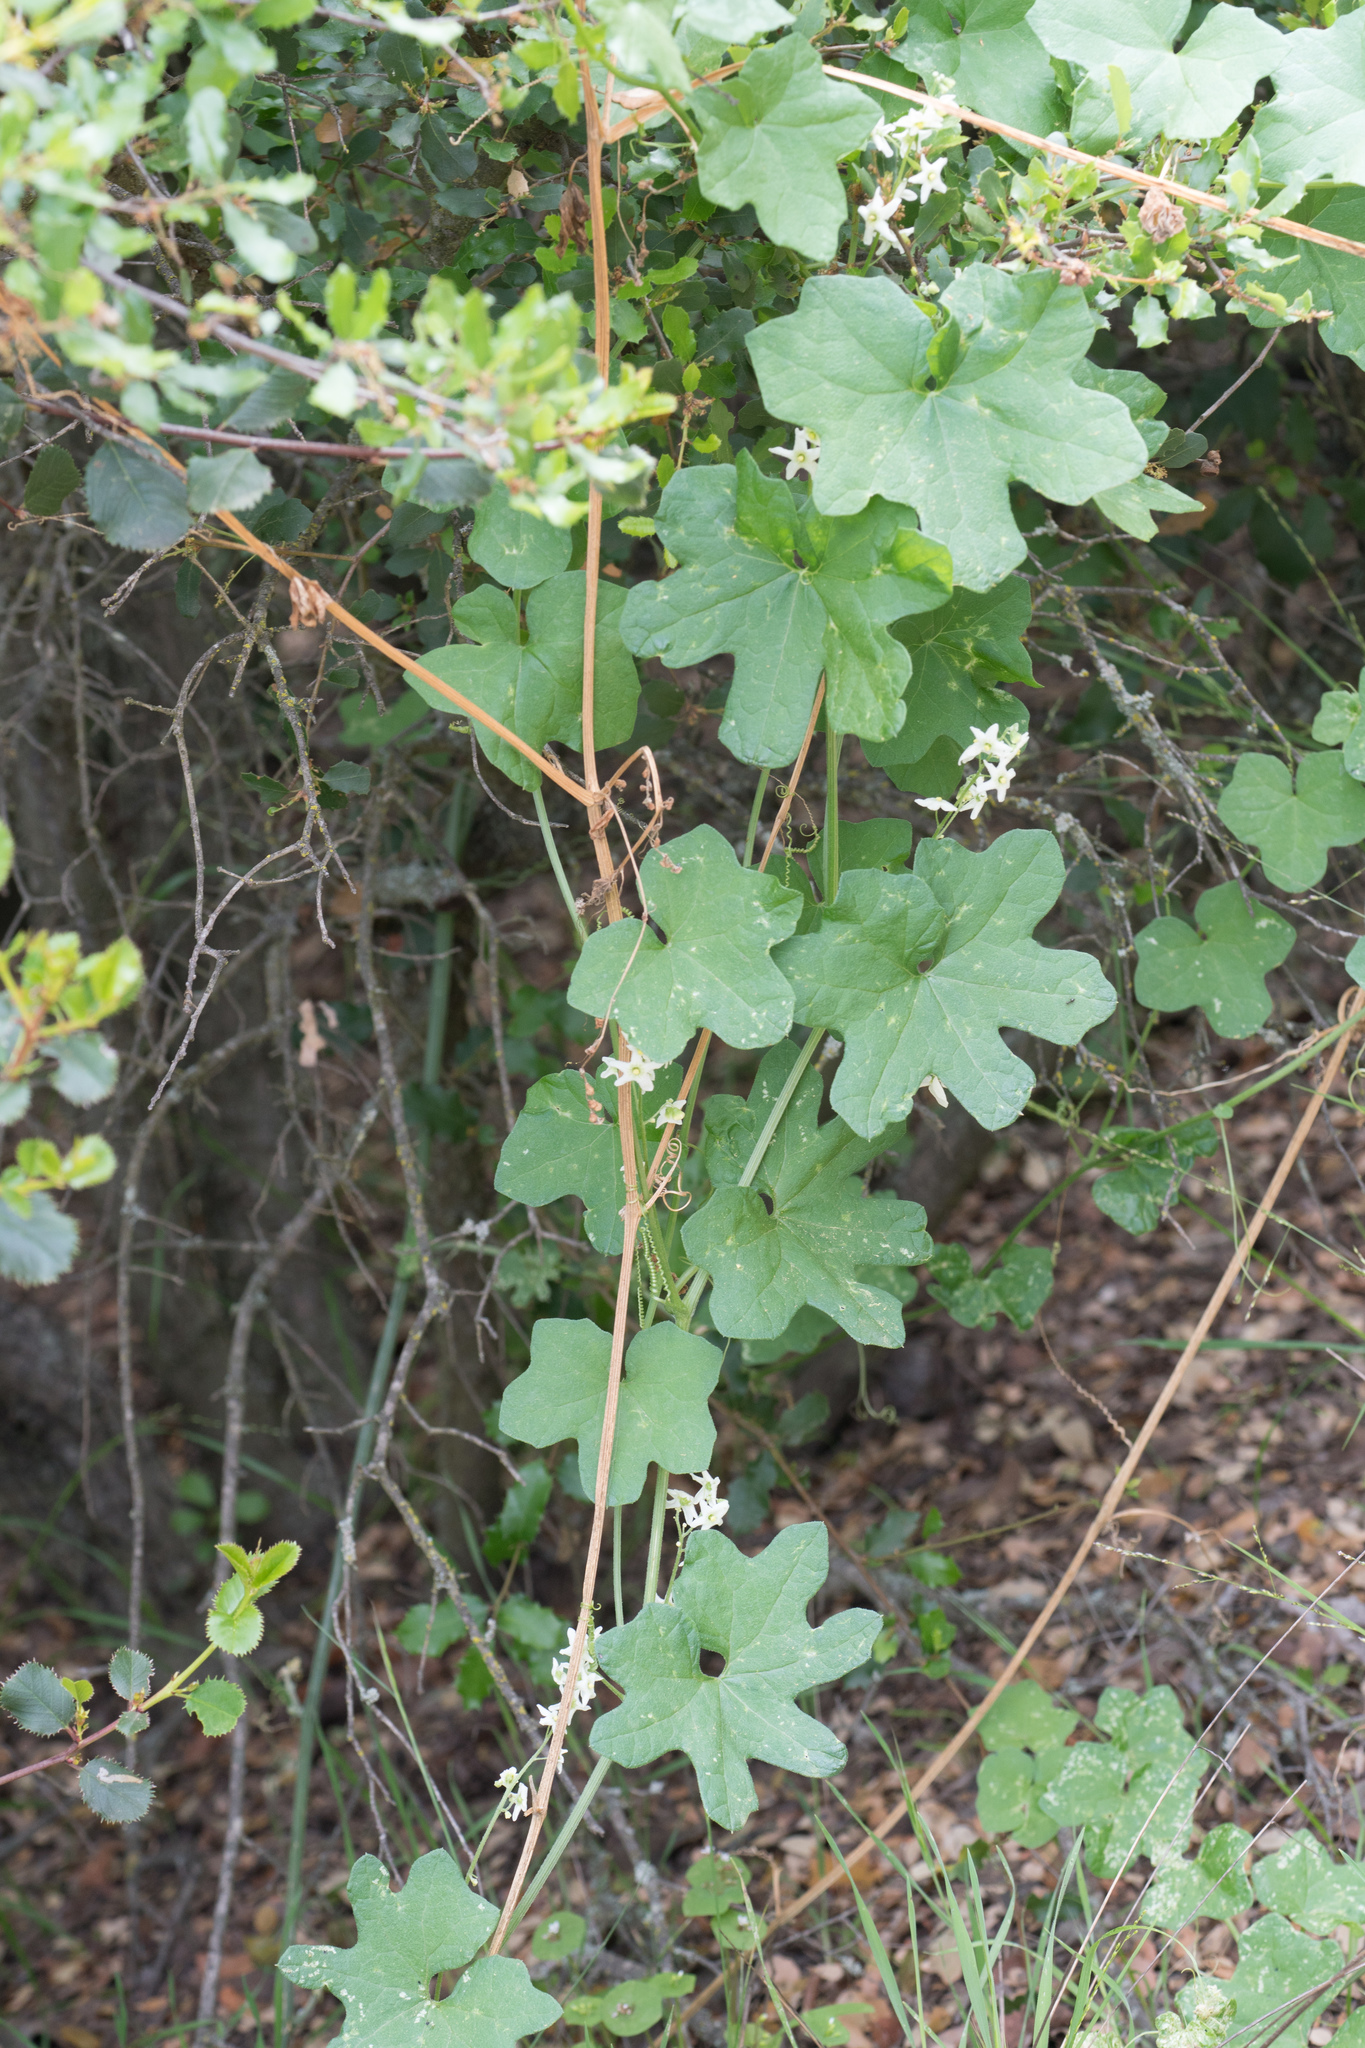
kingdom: Plantae
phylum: Tracheophyta
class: Magnoliopsida
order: Cucurbitales
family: Cucurbitaceae
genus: Marah
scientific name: Marah macrocarpa
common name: Cucamonga manroot
